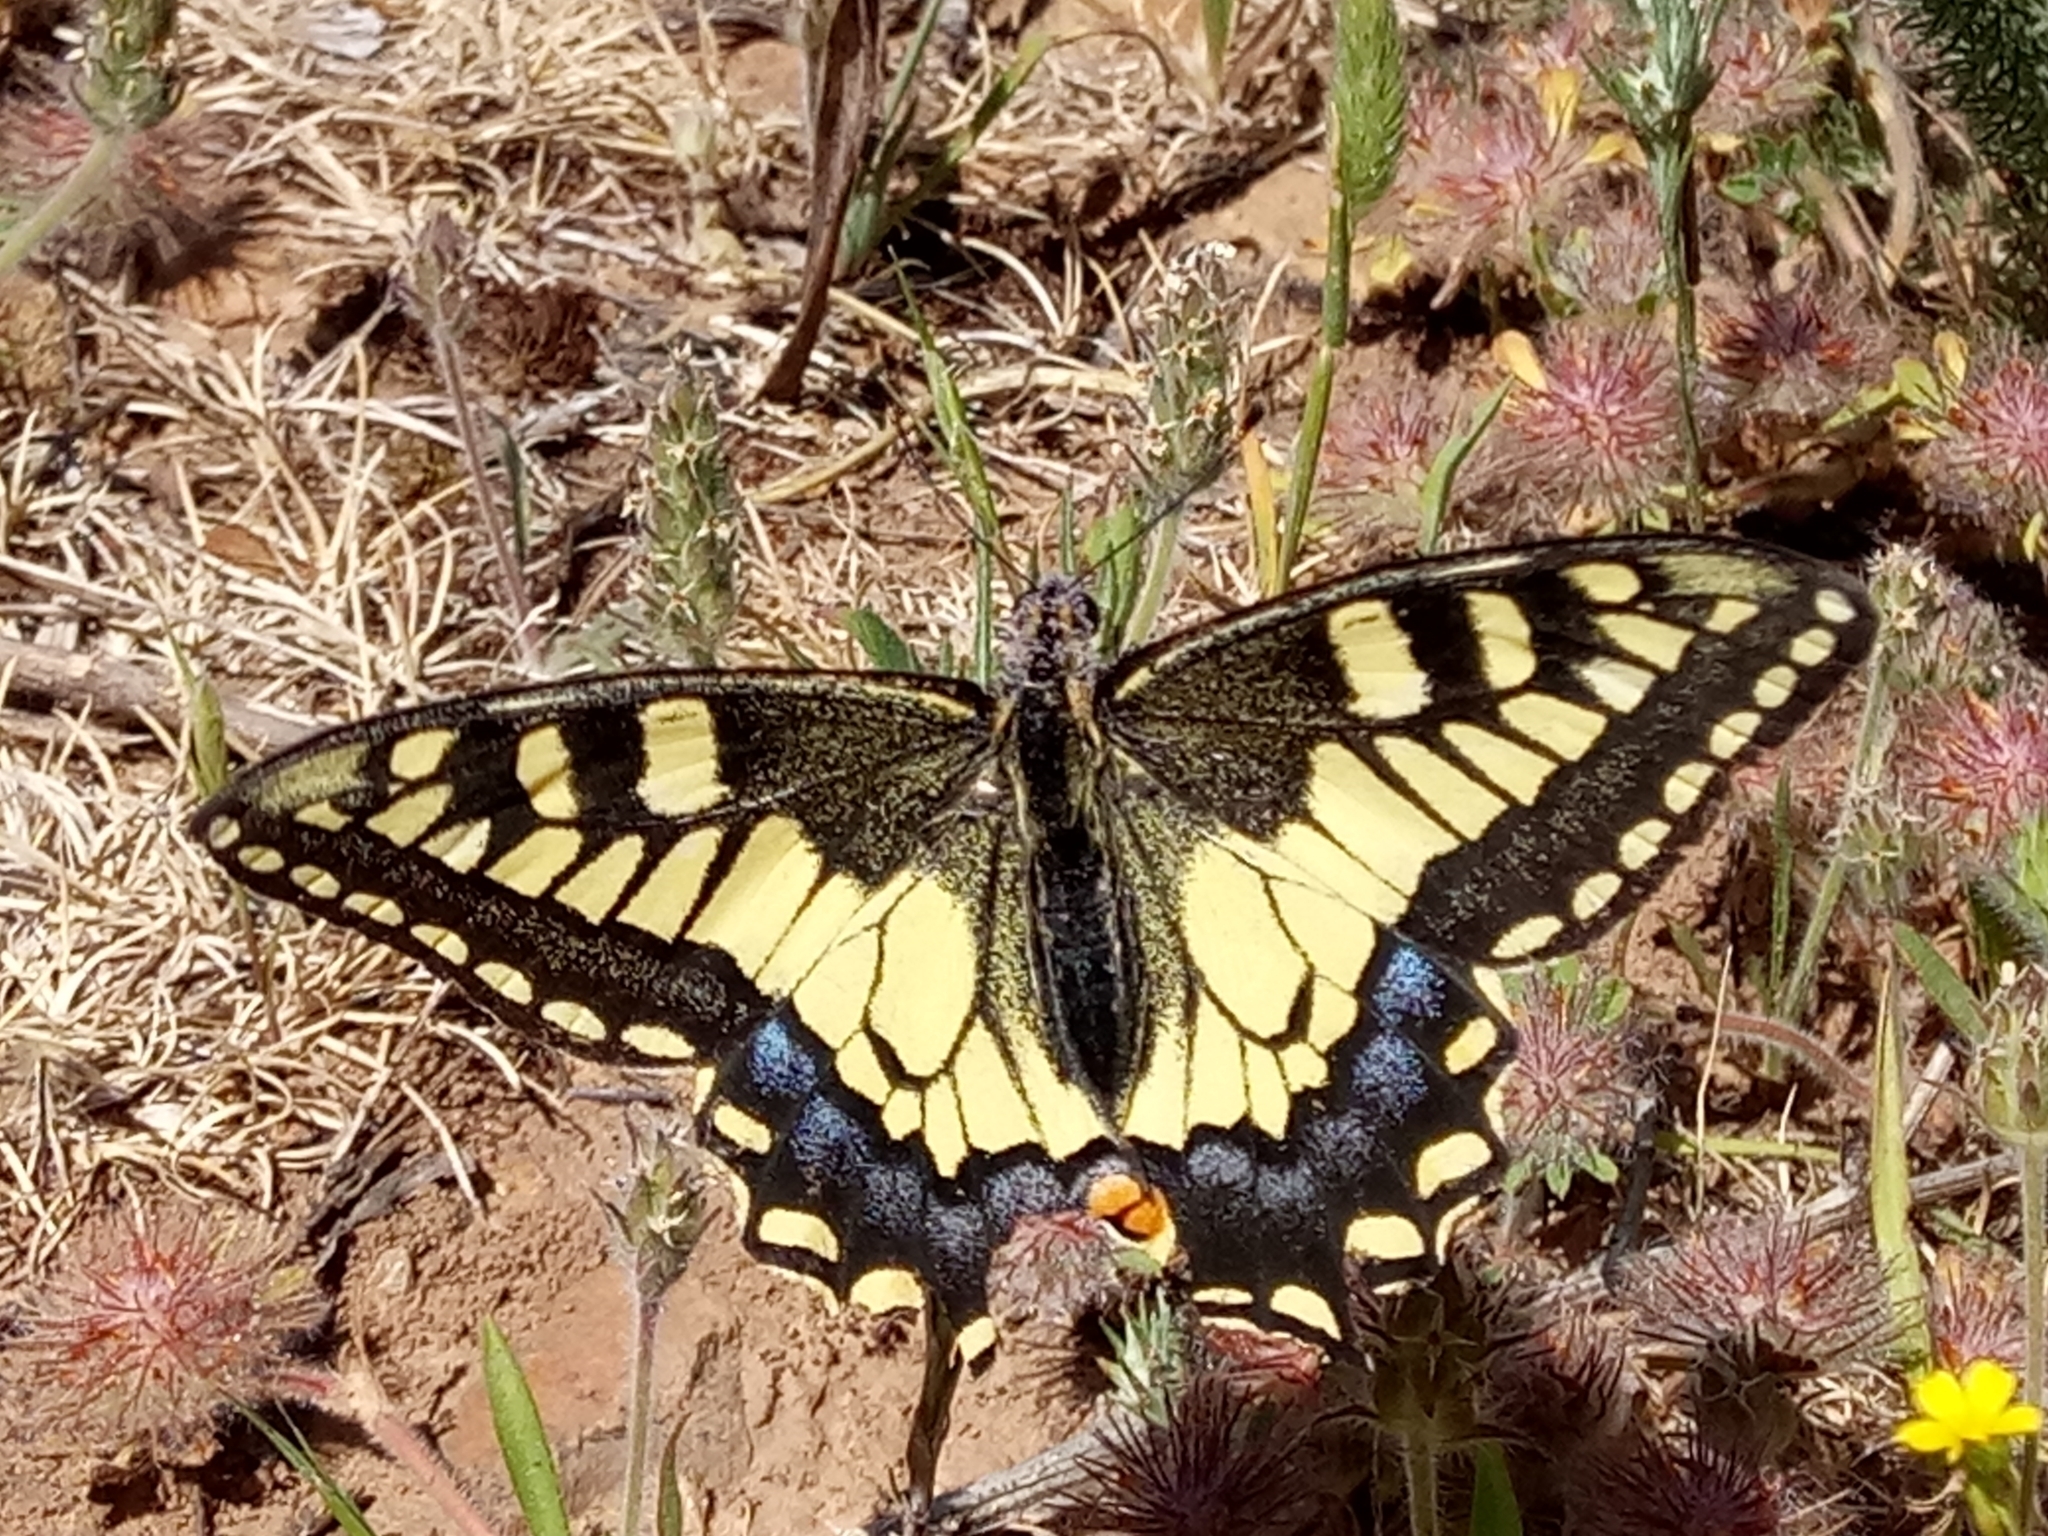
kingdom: Animalia
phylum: Arthropoda
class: Insecta
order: Lepidoptera
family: Papilionidae
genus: Papilio
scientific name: Papilio machaon
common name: Swallowtail
